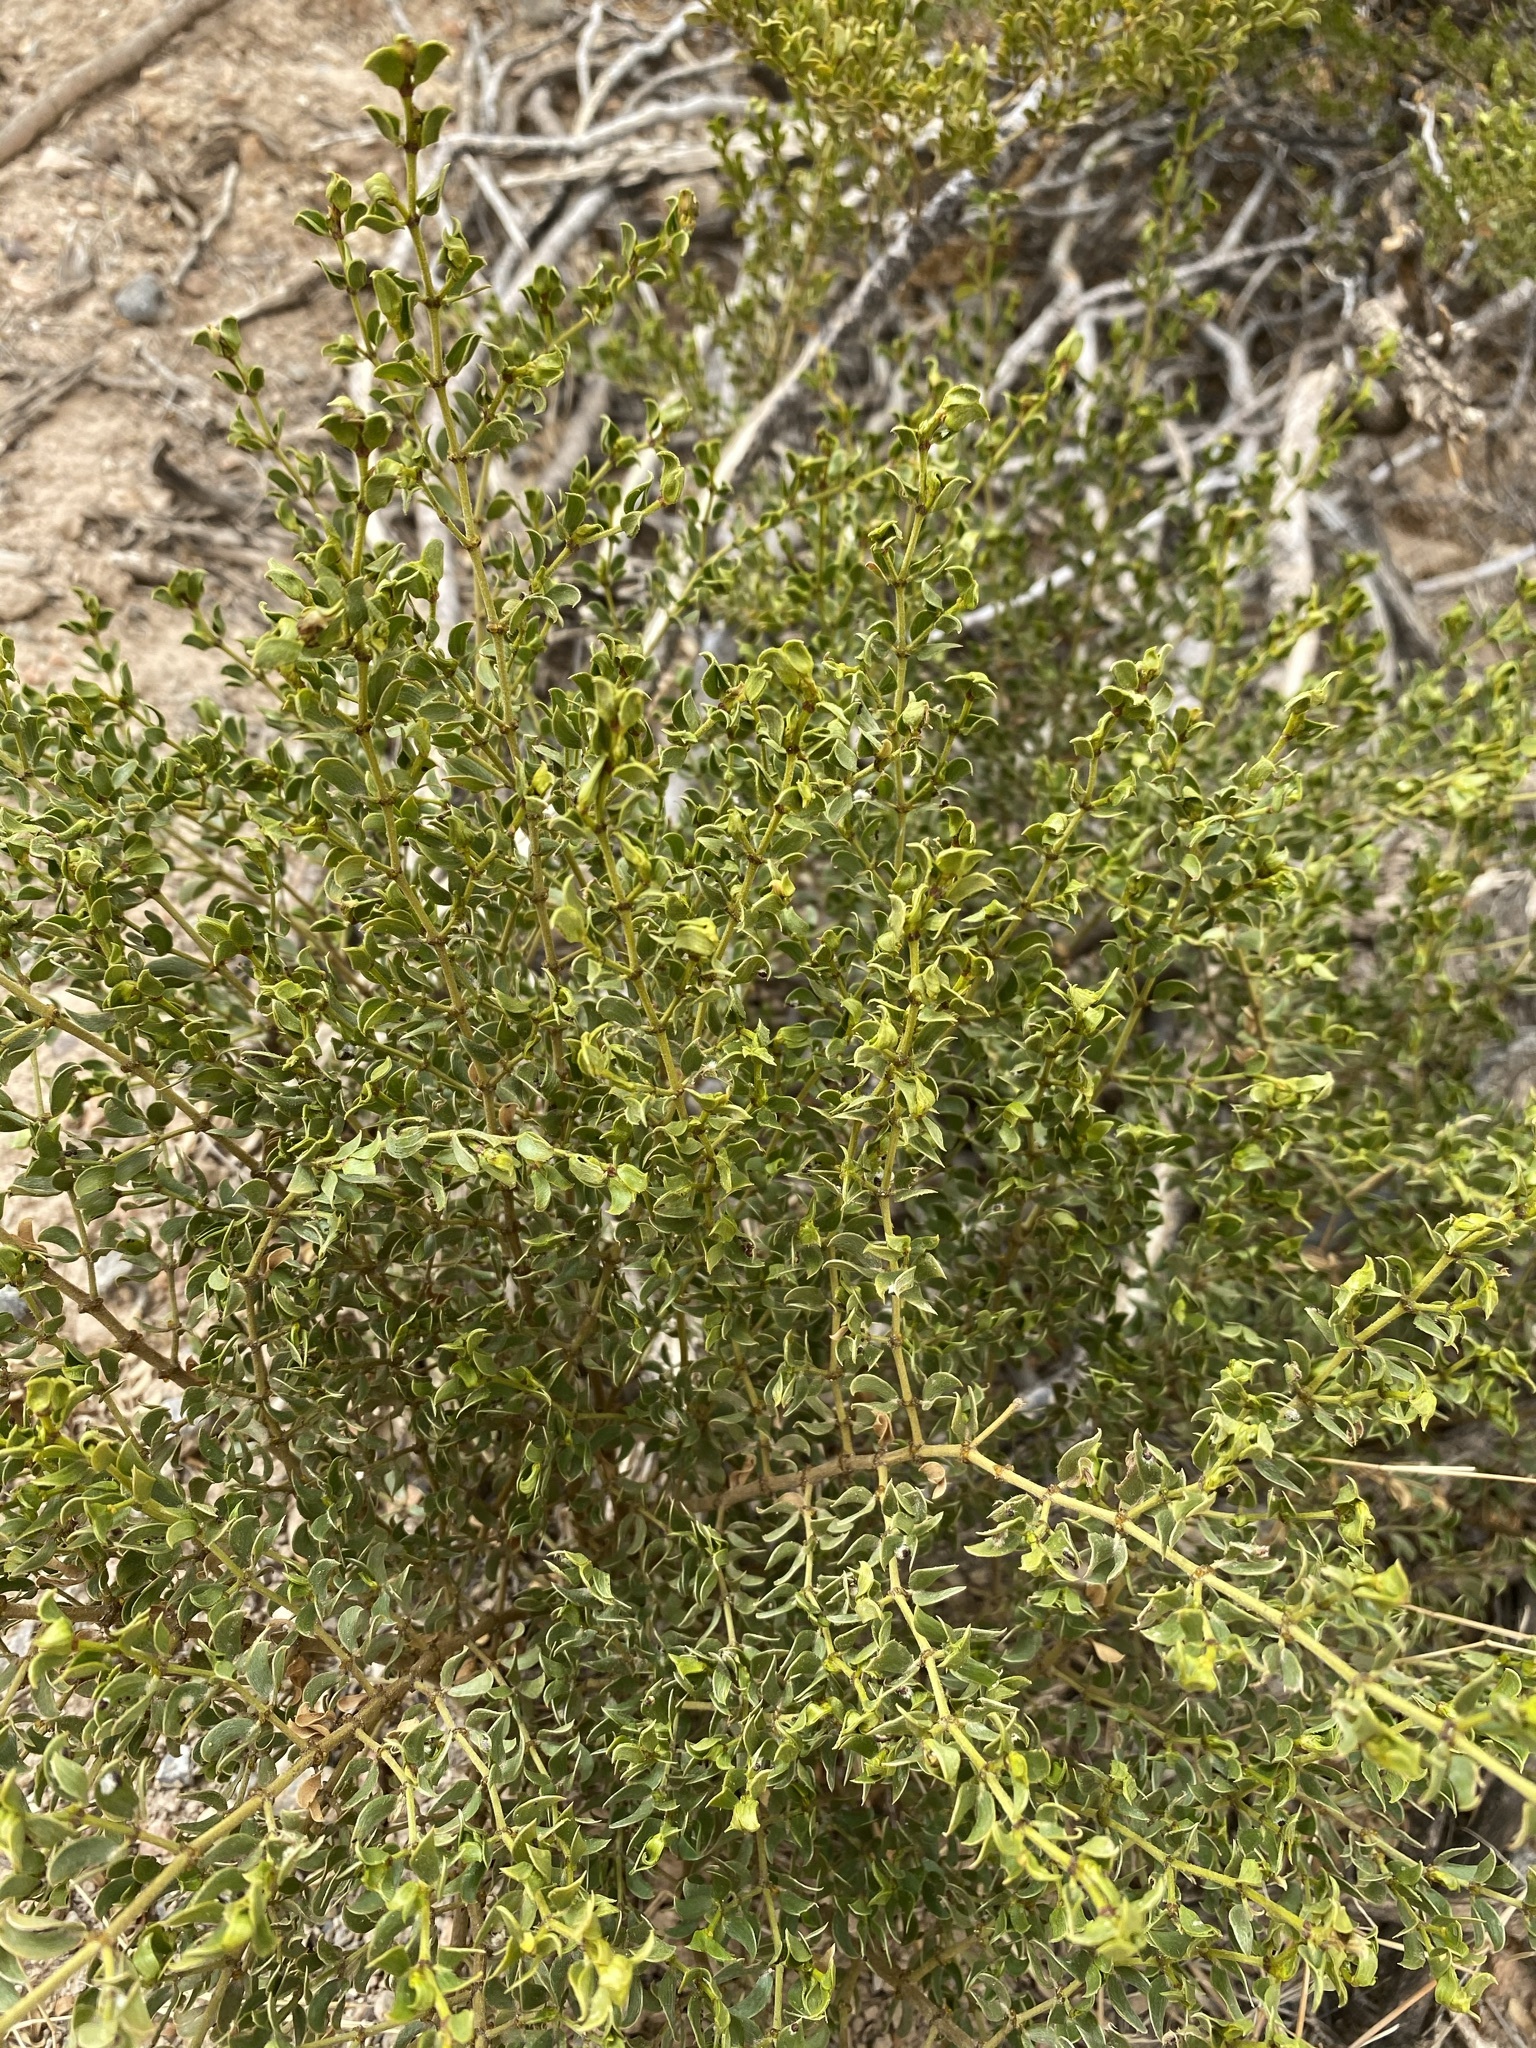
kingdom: Plantae
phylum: Tracheophyta
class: Magnoliopsida
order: Zygophyllales
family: Zygophyllaceae
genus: Larrea
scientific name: Larrea tridentata
